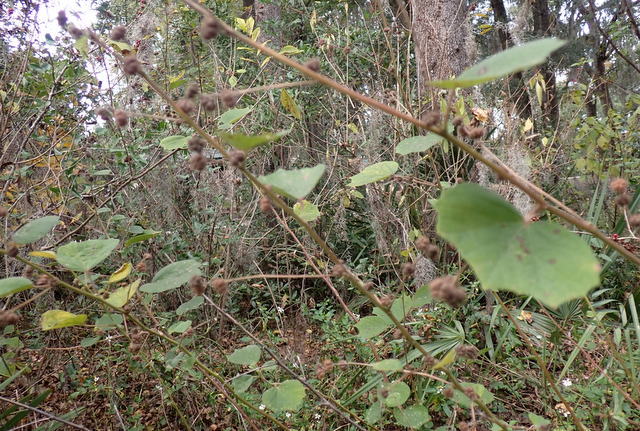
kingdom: Plantae
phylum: Tracheophyta
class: Magnoliopsida
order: Malvales
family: Malvaceae
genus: Urena
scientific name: Urena lobata
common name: Caesarweed
